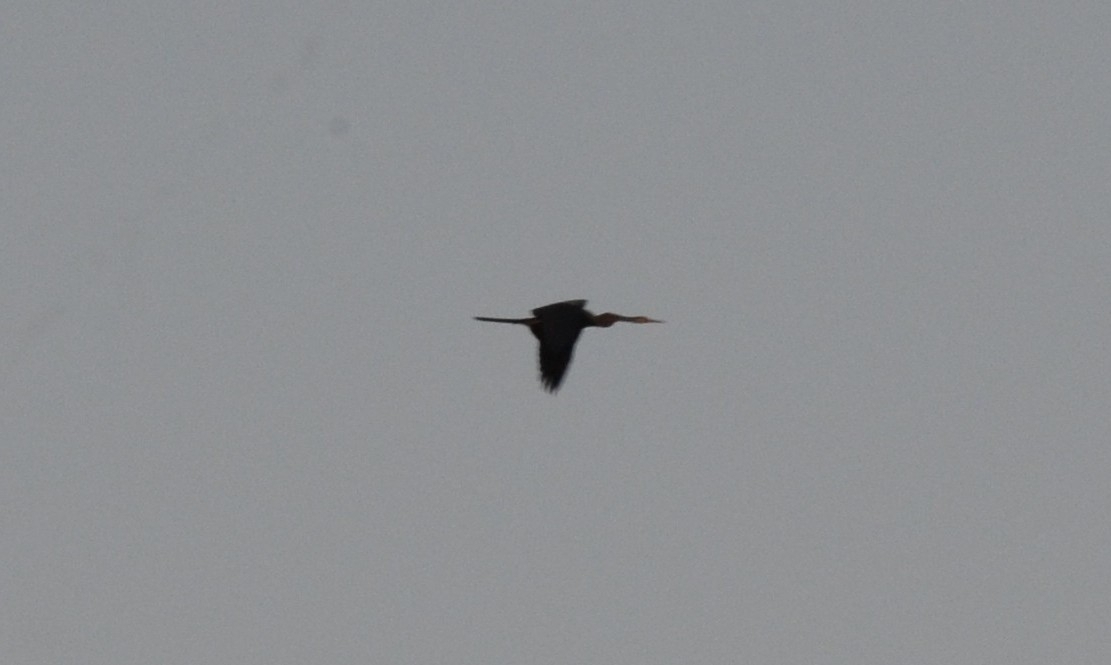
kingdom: Animalia
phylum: Chordata
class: Aves
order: Suliformes
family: Anhingidae
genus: Anhinga
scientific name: Anhinga melanogaster
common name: Oriental darter
